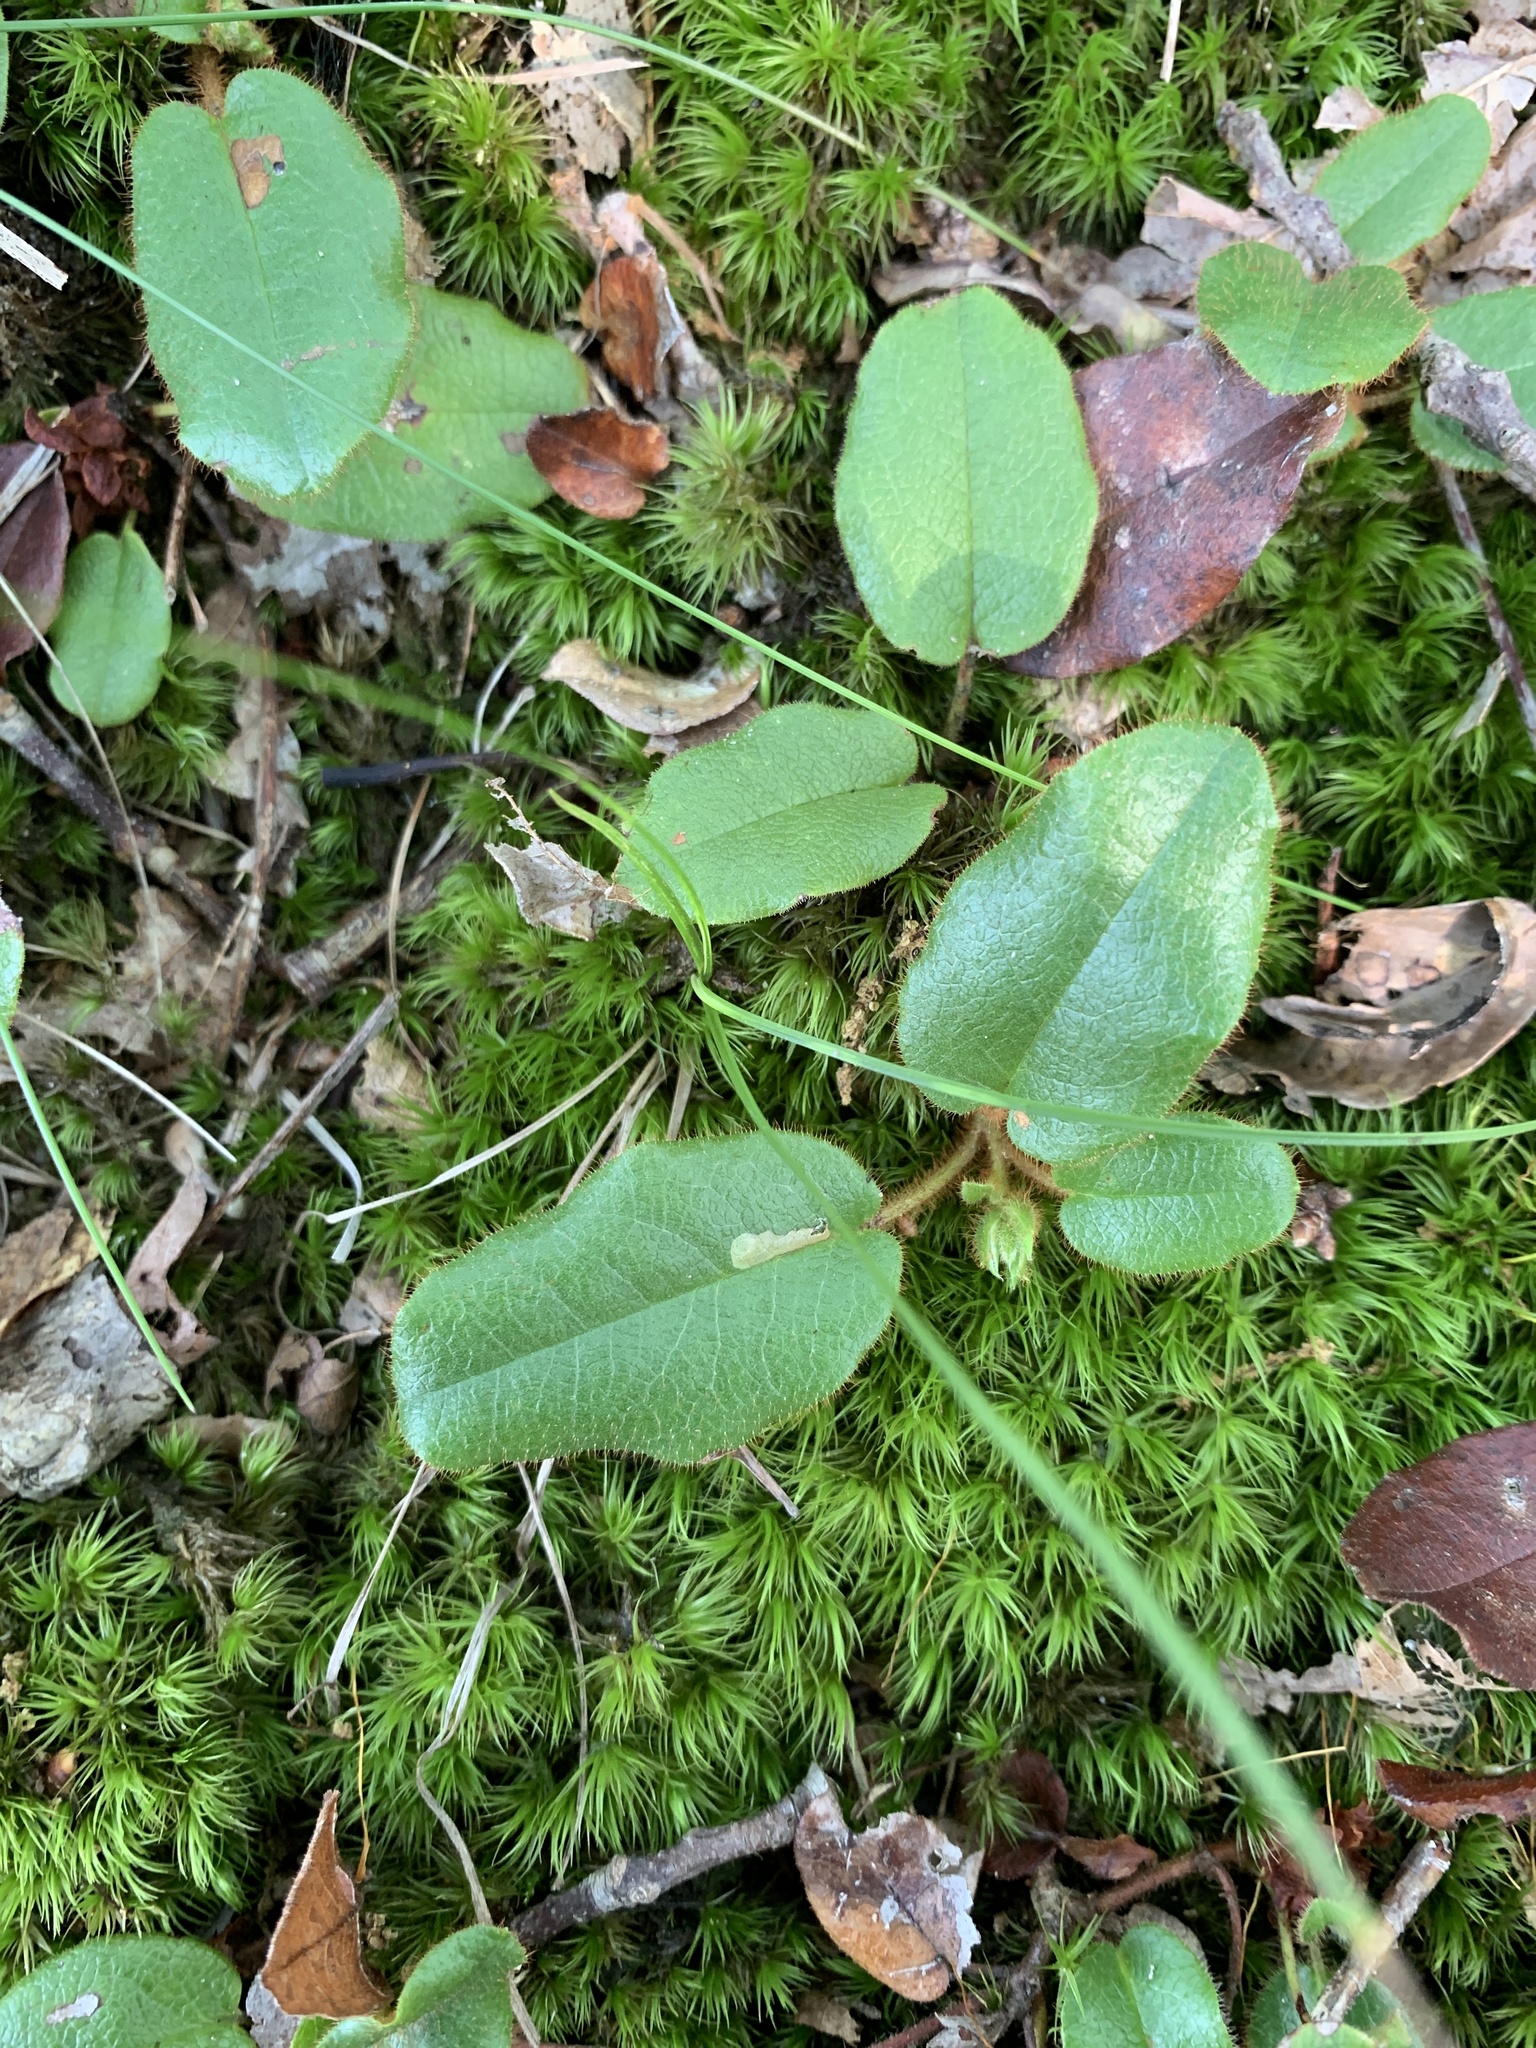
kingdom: Plantae
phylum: Tracheophyta
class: Magnoliopsida
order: Ericales
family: Ericaceae
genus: Epigaea
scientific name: Epigaea repens
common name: Gravelroot
